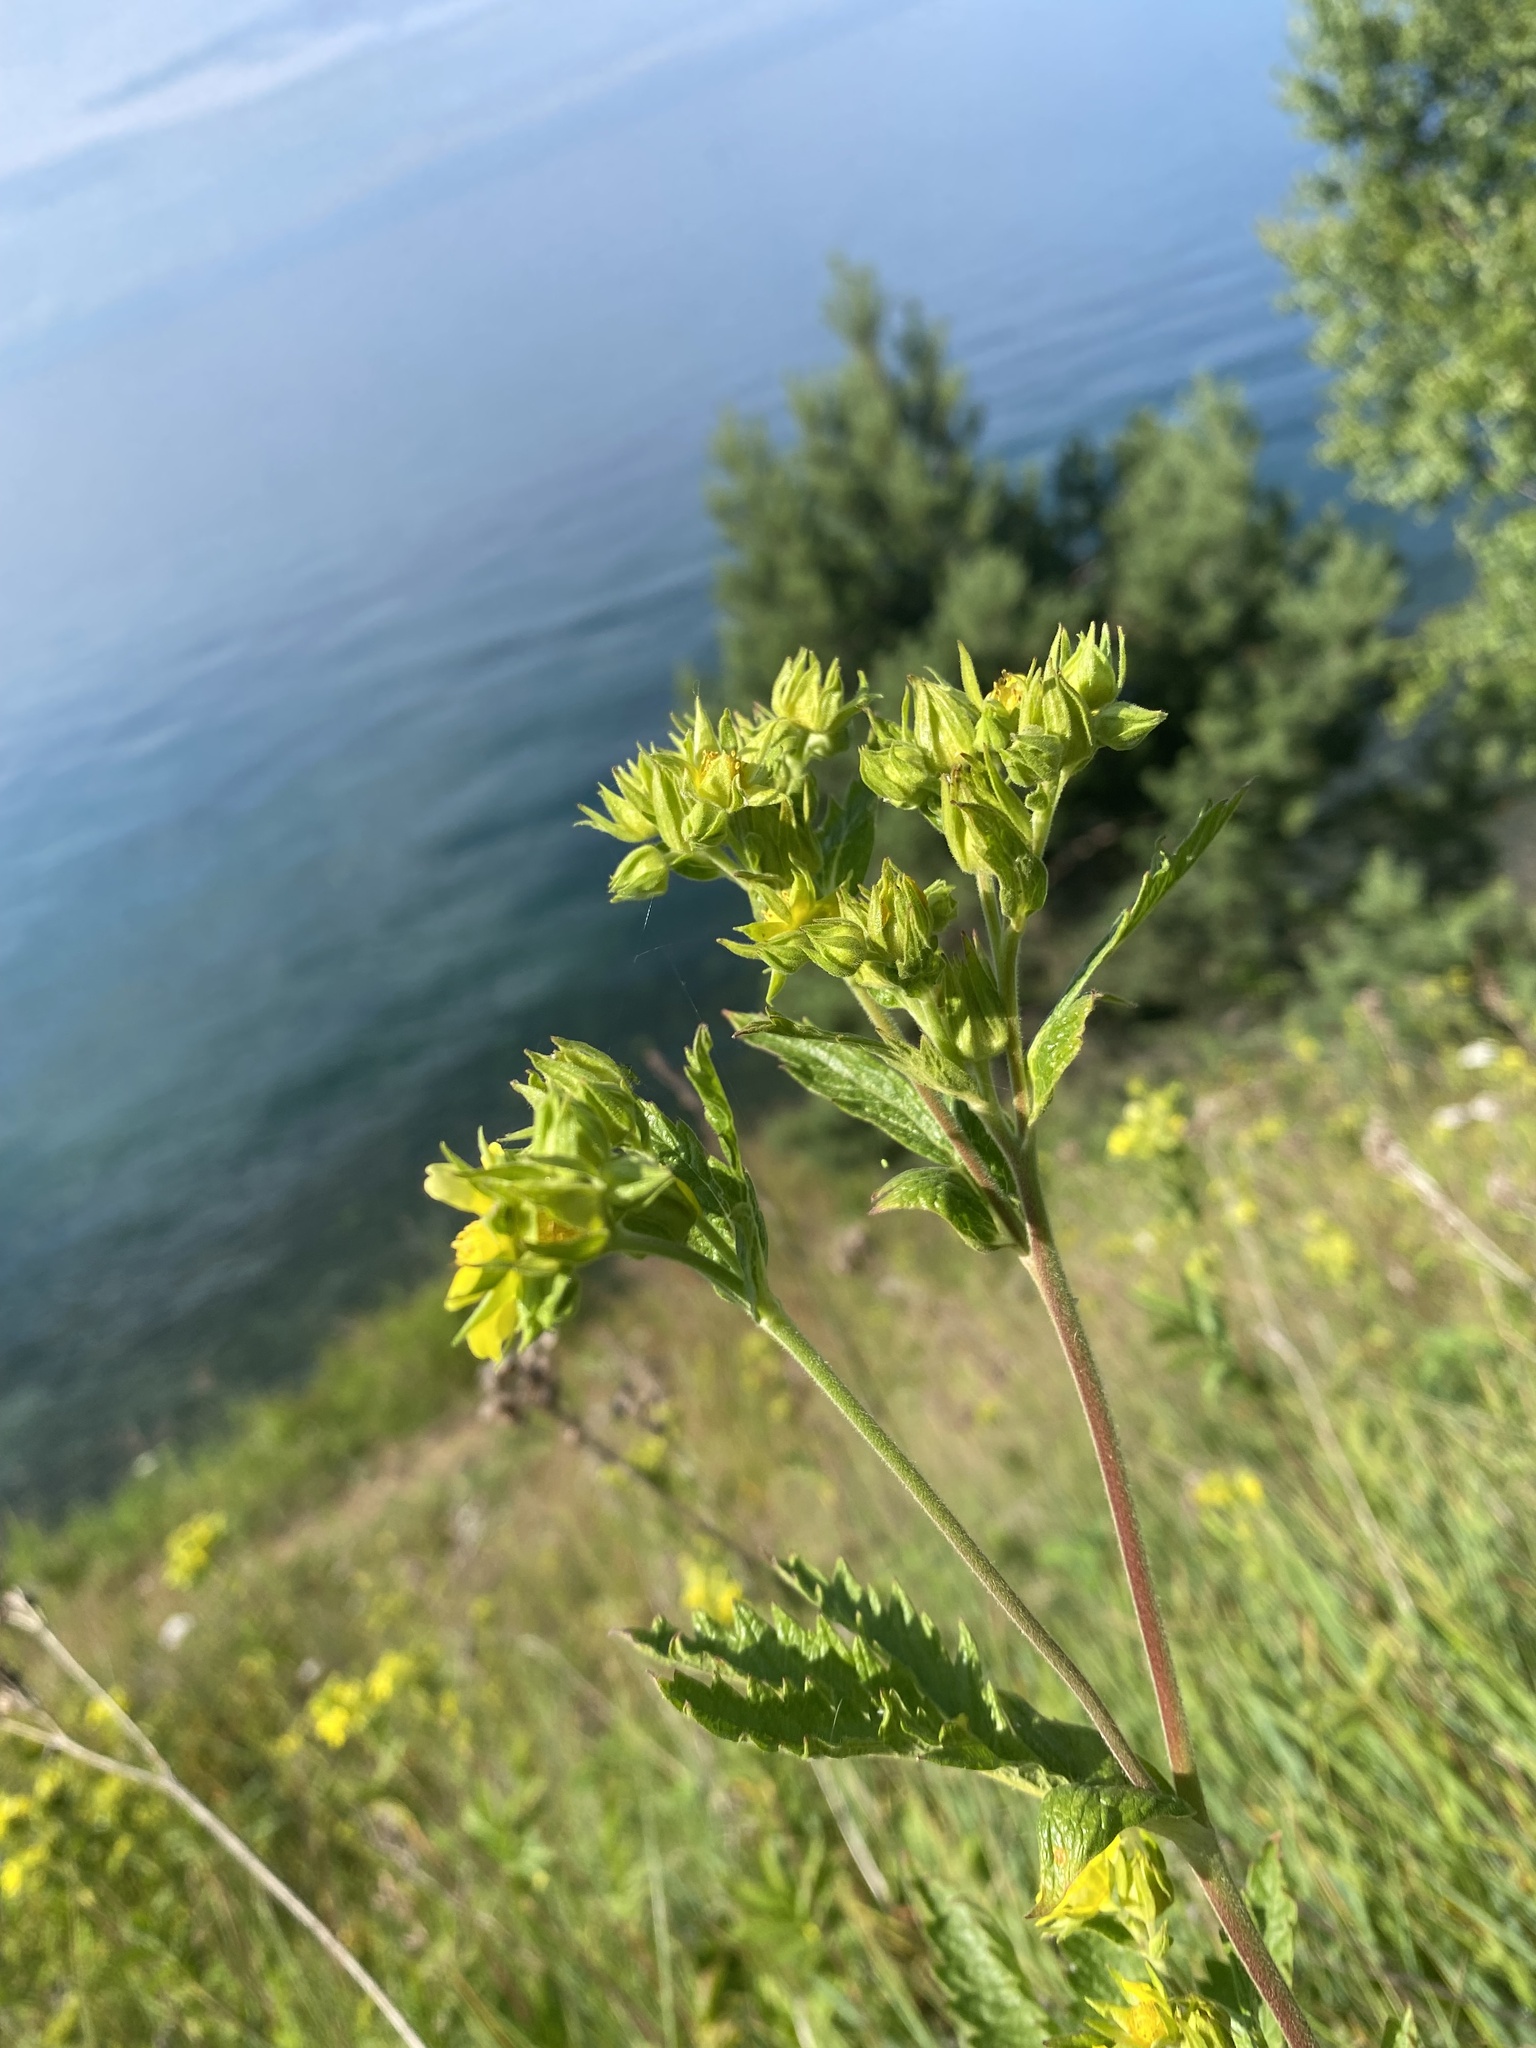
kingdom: Plantae
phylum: Tracheophyta
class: Magnoliopsida
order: Rosales
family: Rosaceae
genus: Potentilla
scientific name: Potentilla longifolia
